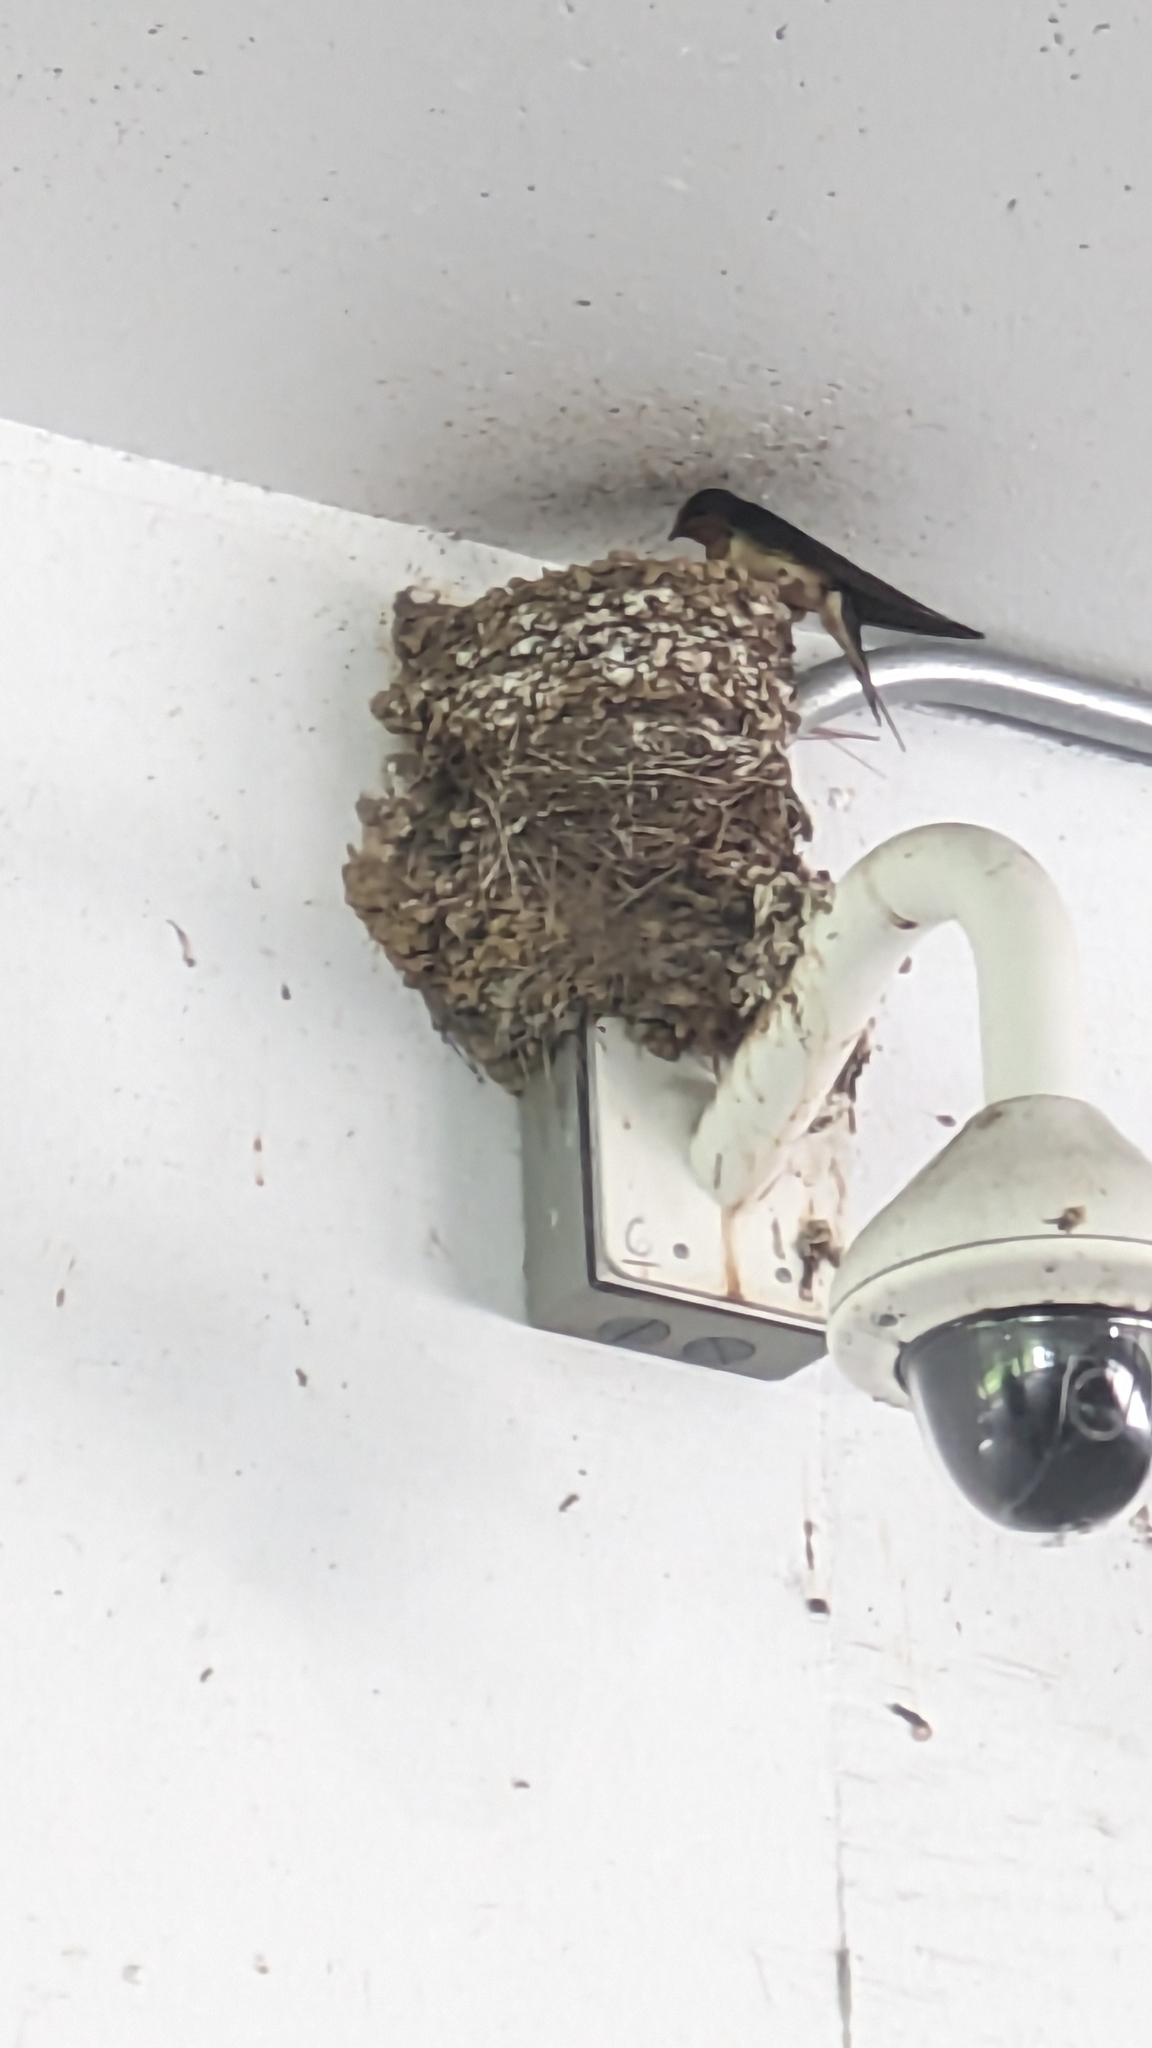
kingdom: Animalia
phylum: Chordata
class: Aves
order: Passeriformes
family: Hirundinidae
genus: Hirundo
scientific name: Hirundo rustica
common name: Barn swallow
